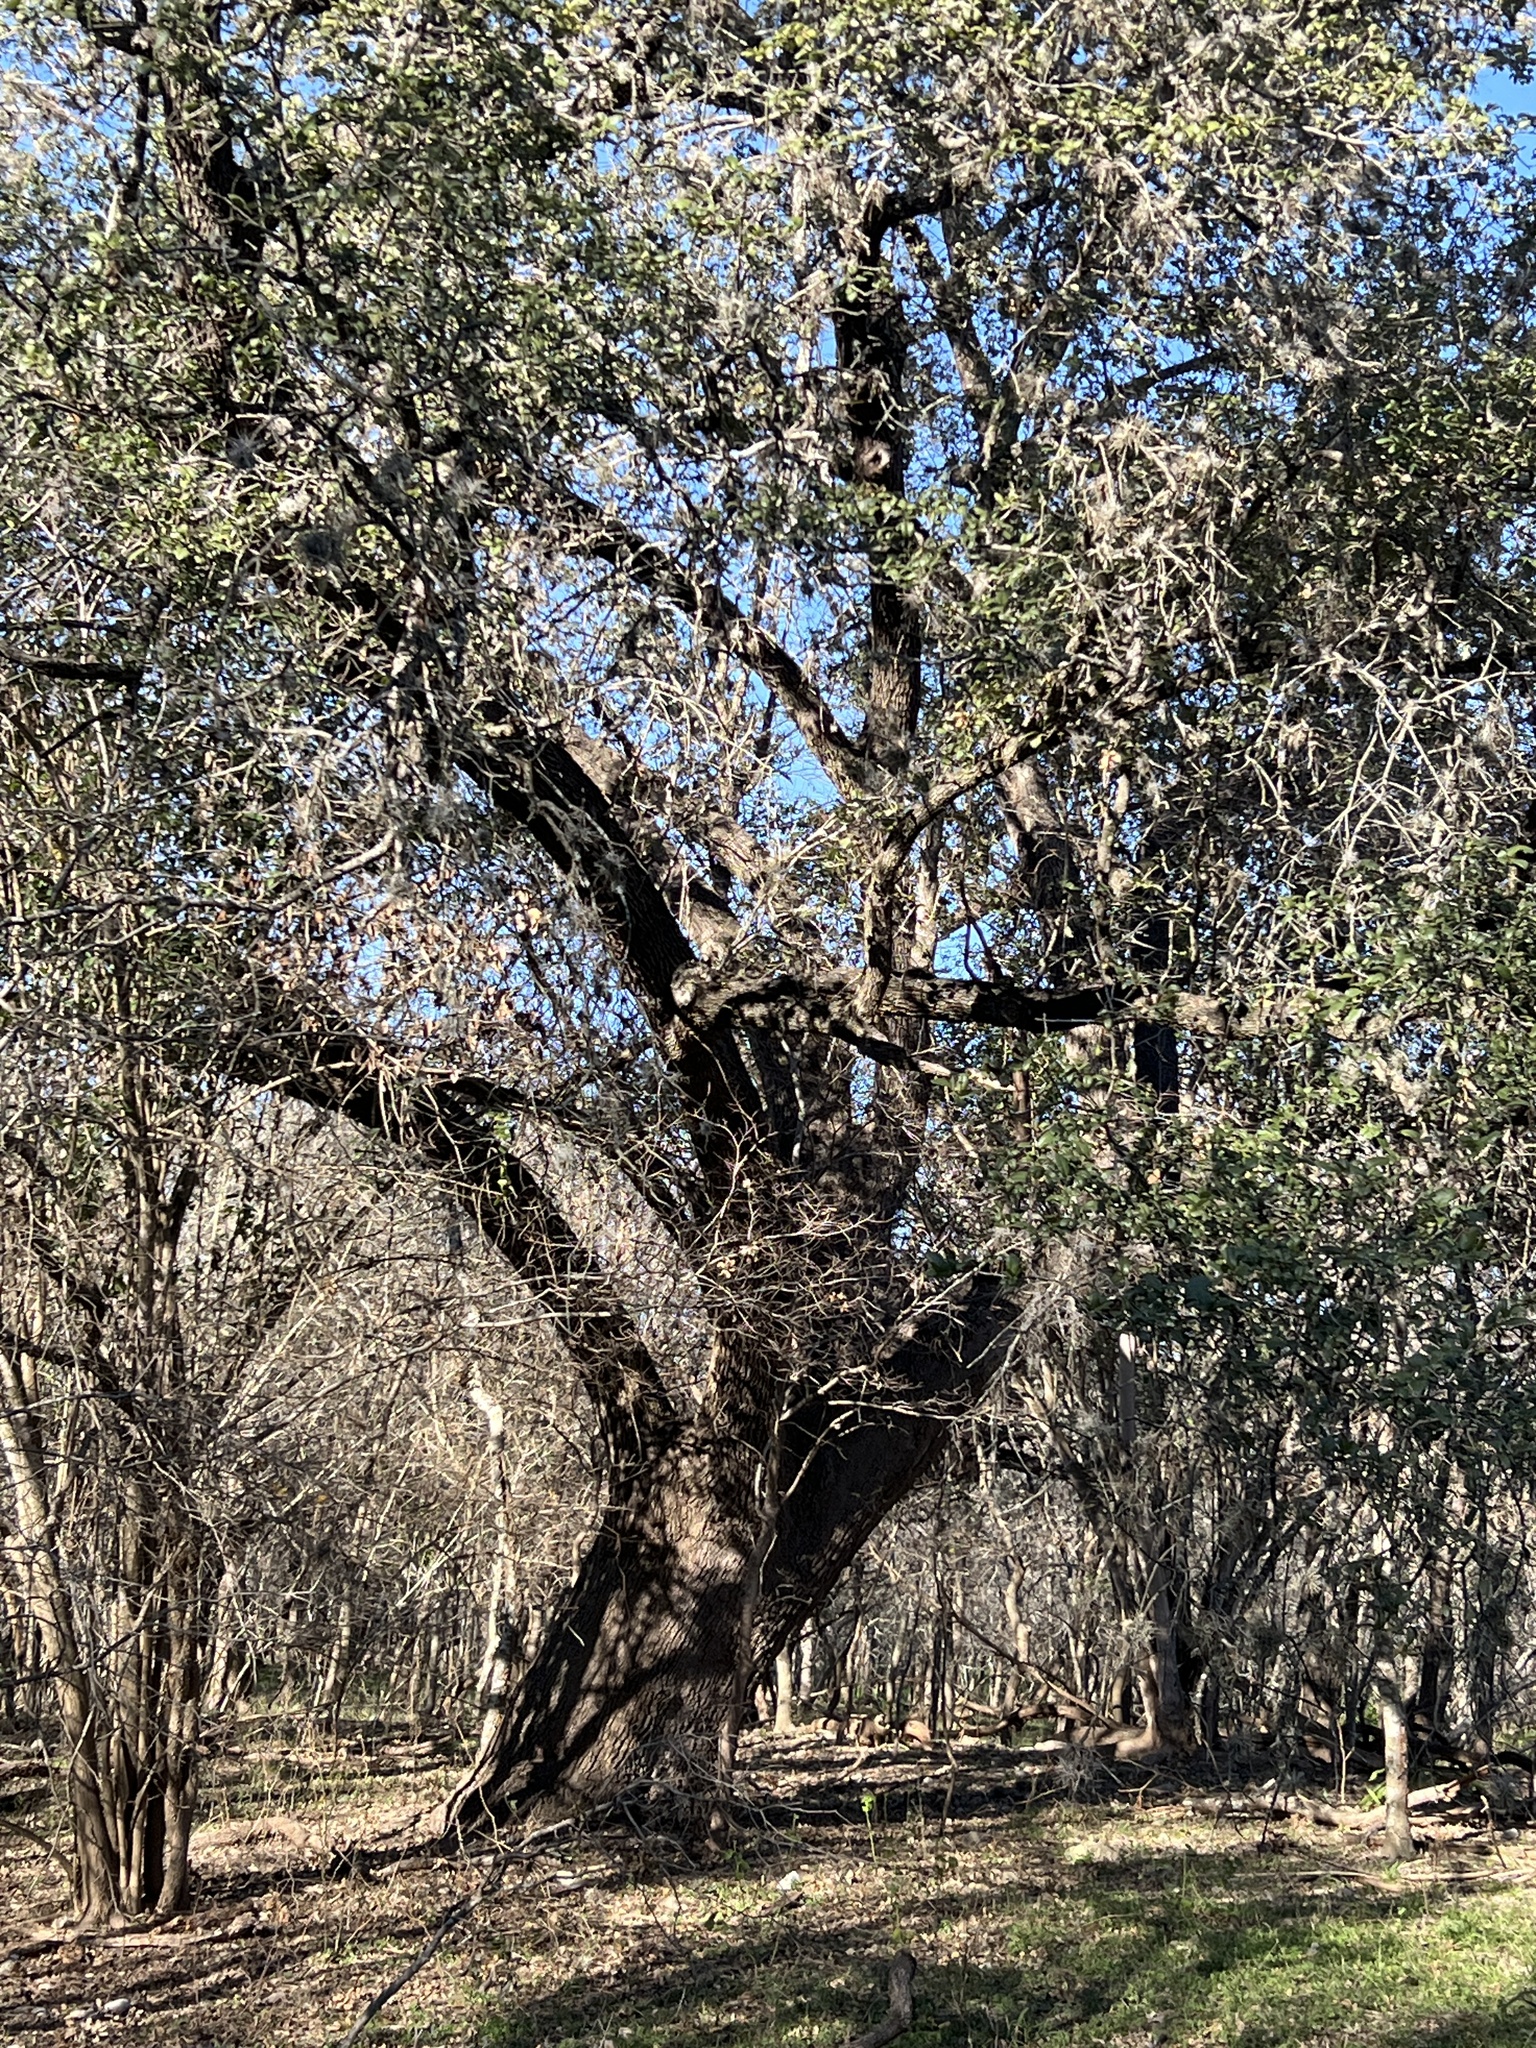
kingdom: Plantae
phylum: Tracheophyta
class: Magnoliopsida
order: Fagales
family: Fagaceae
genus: Quercus
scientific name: Quercus fusiformis
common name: Texas live oak
